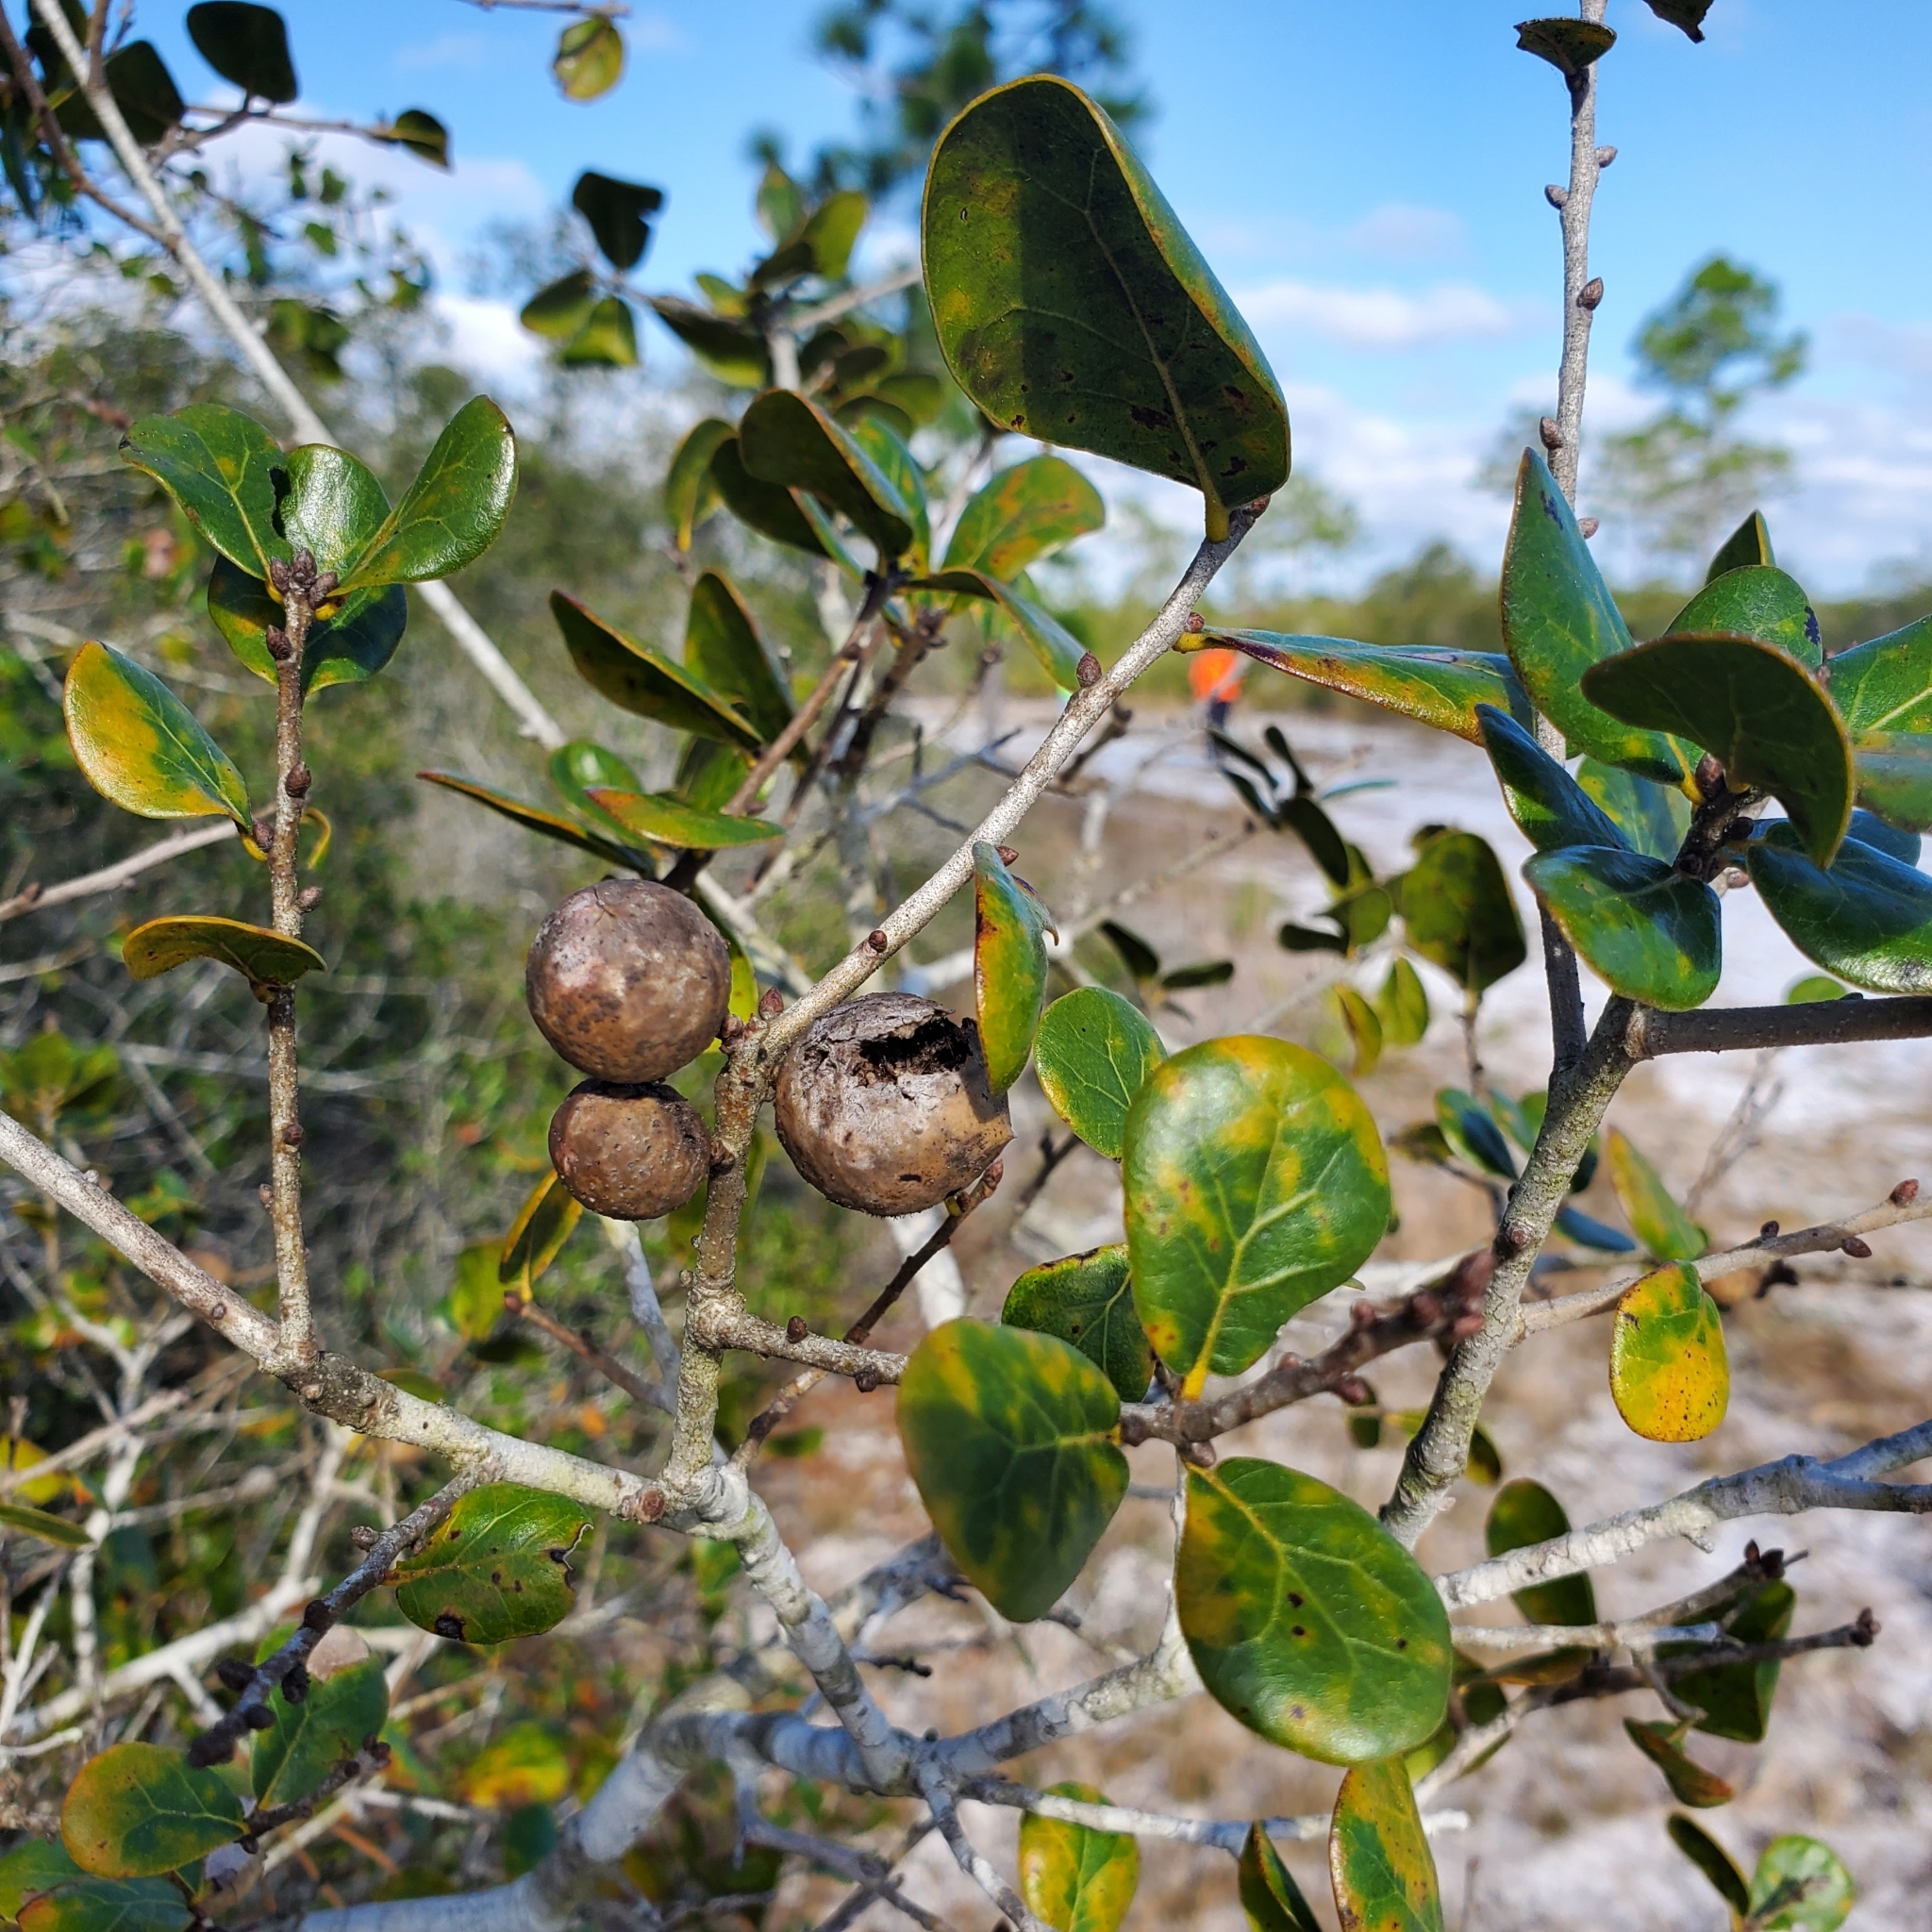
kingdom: Animalia
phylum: Arthropoda
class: Insecta
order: Hymenoptera
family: Cynipidae
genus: Amphibolips
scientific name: Amphibolips
